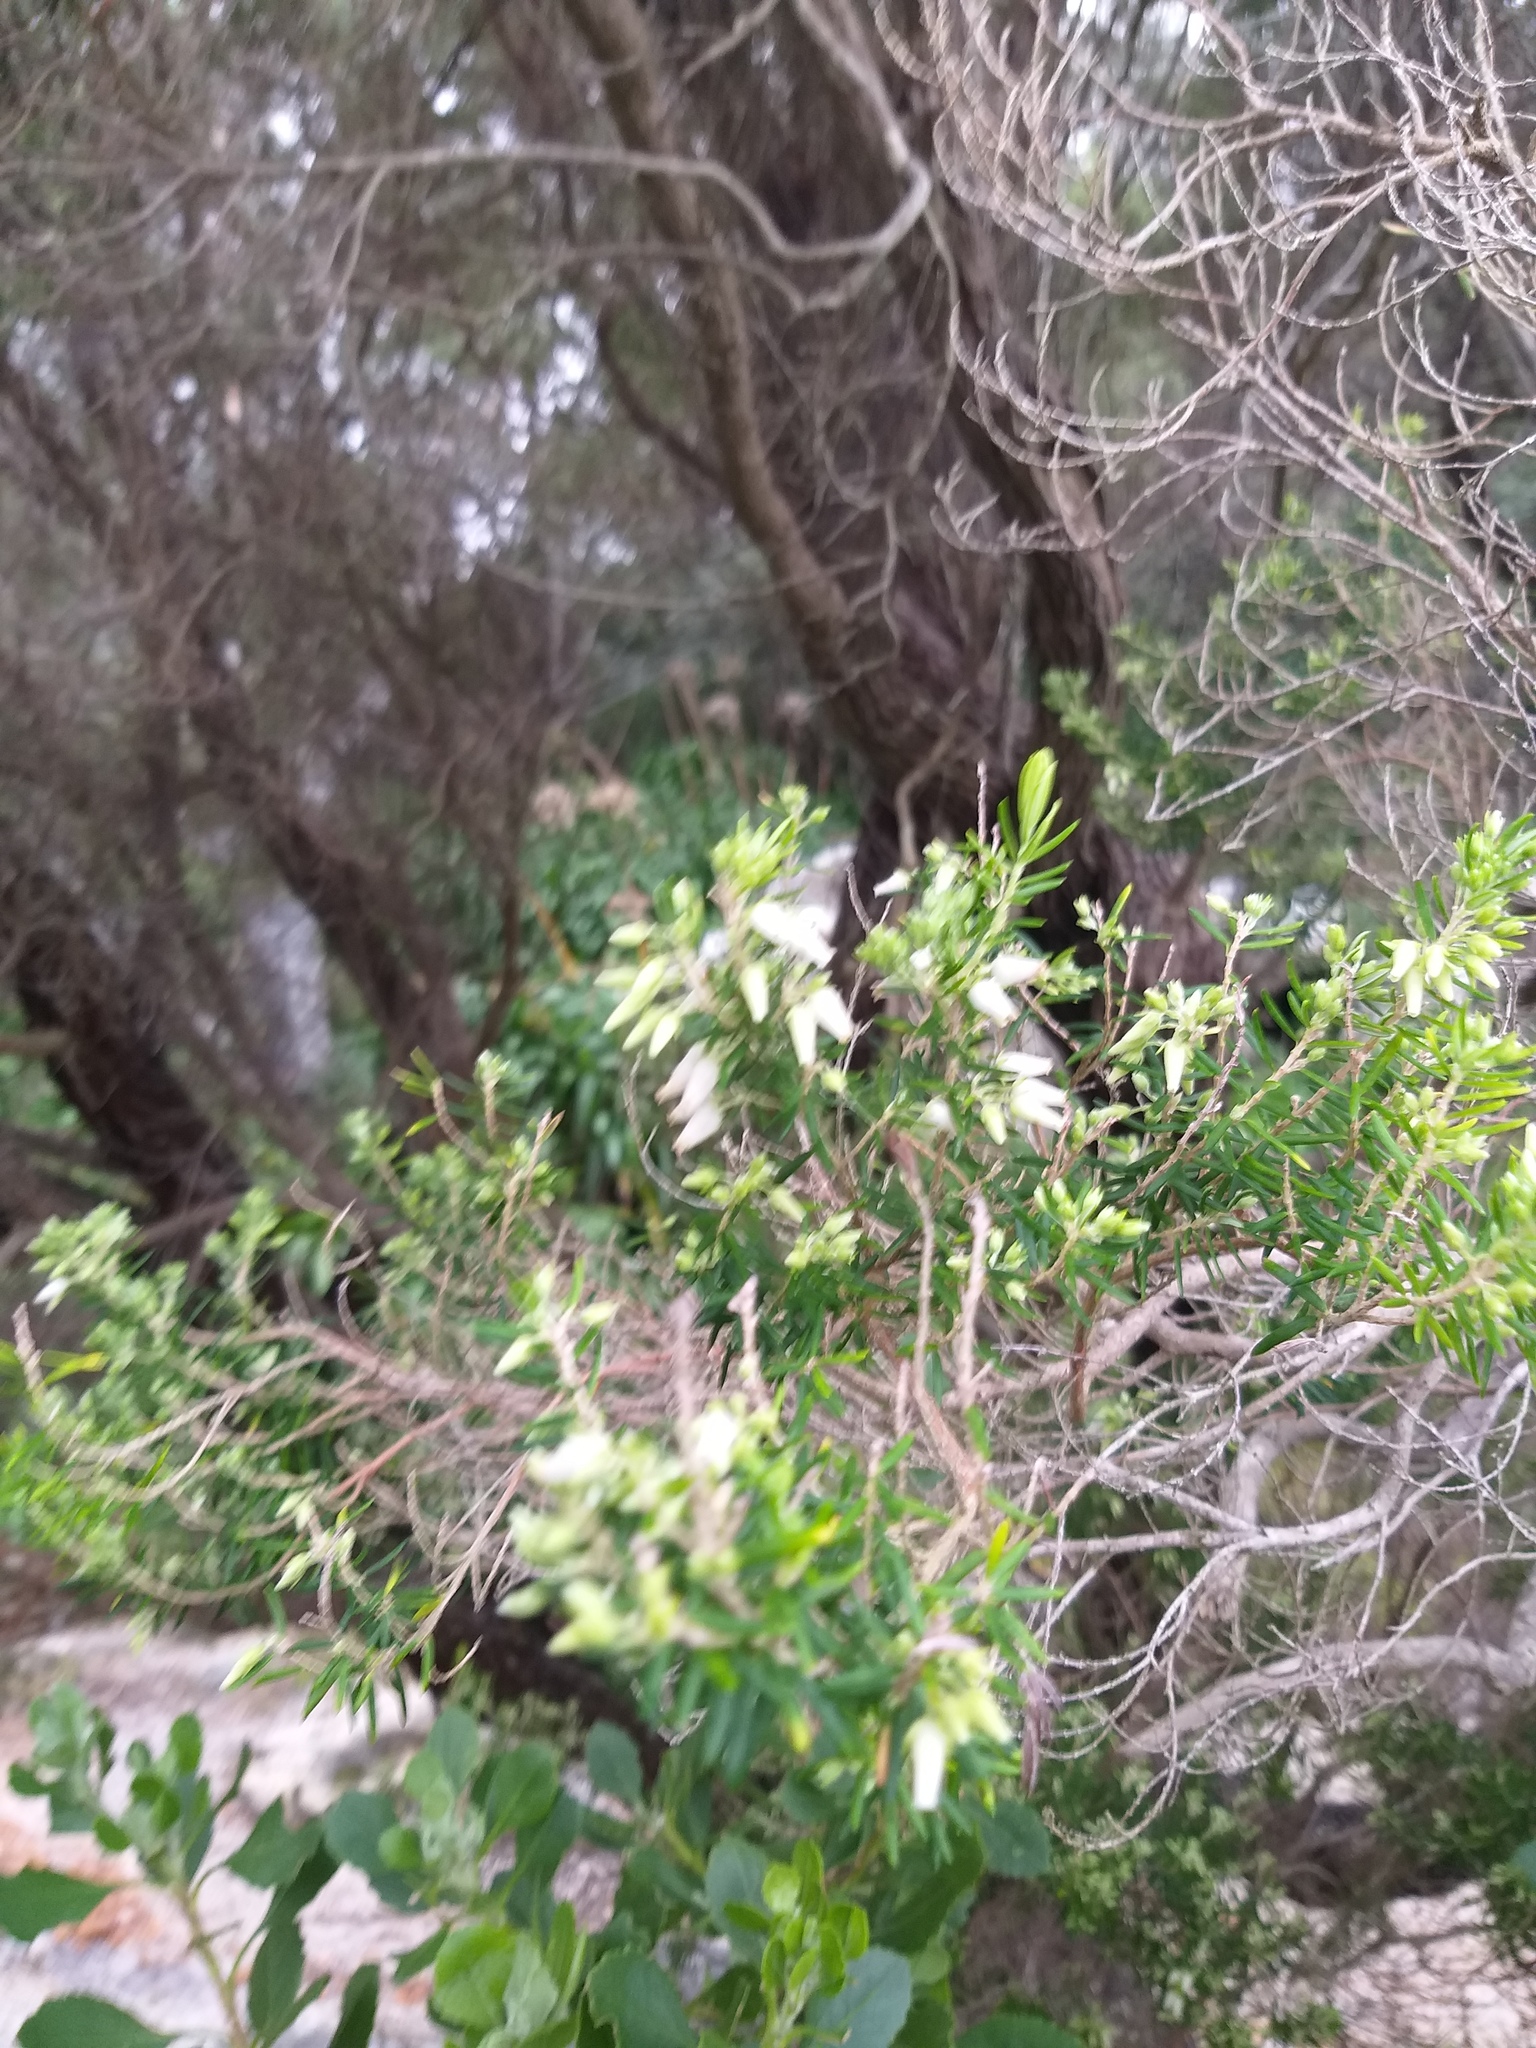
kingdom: Plantae
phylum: Tracheophyta
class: Magnoliopsida
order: Ericales
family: Ericaceae
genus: Erica
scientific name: Erica caffra
